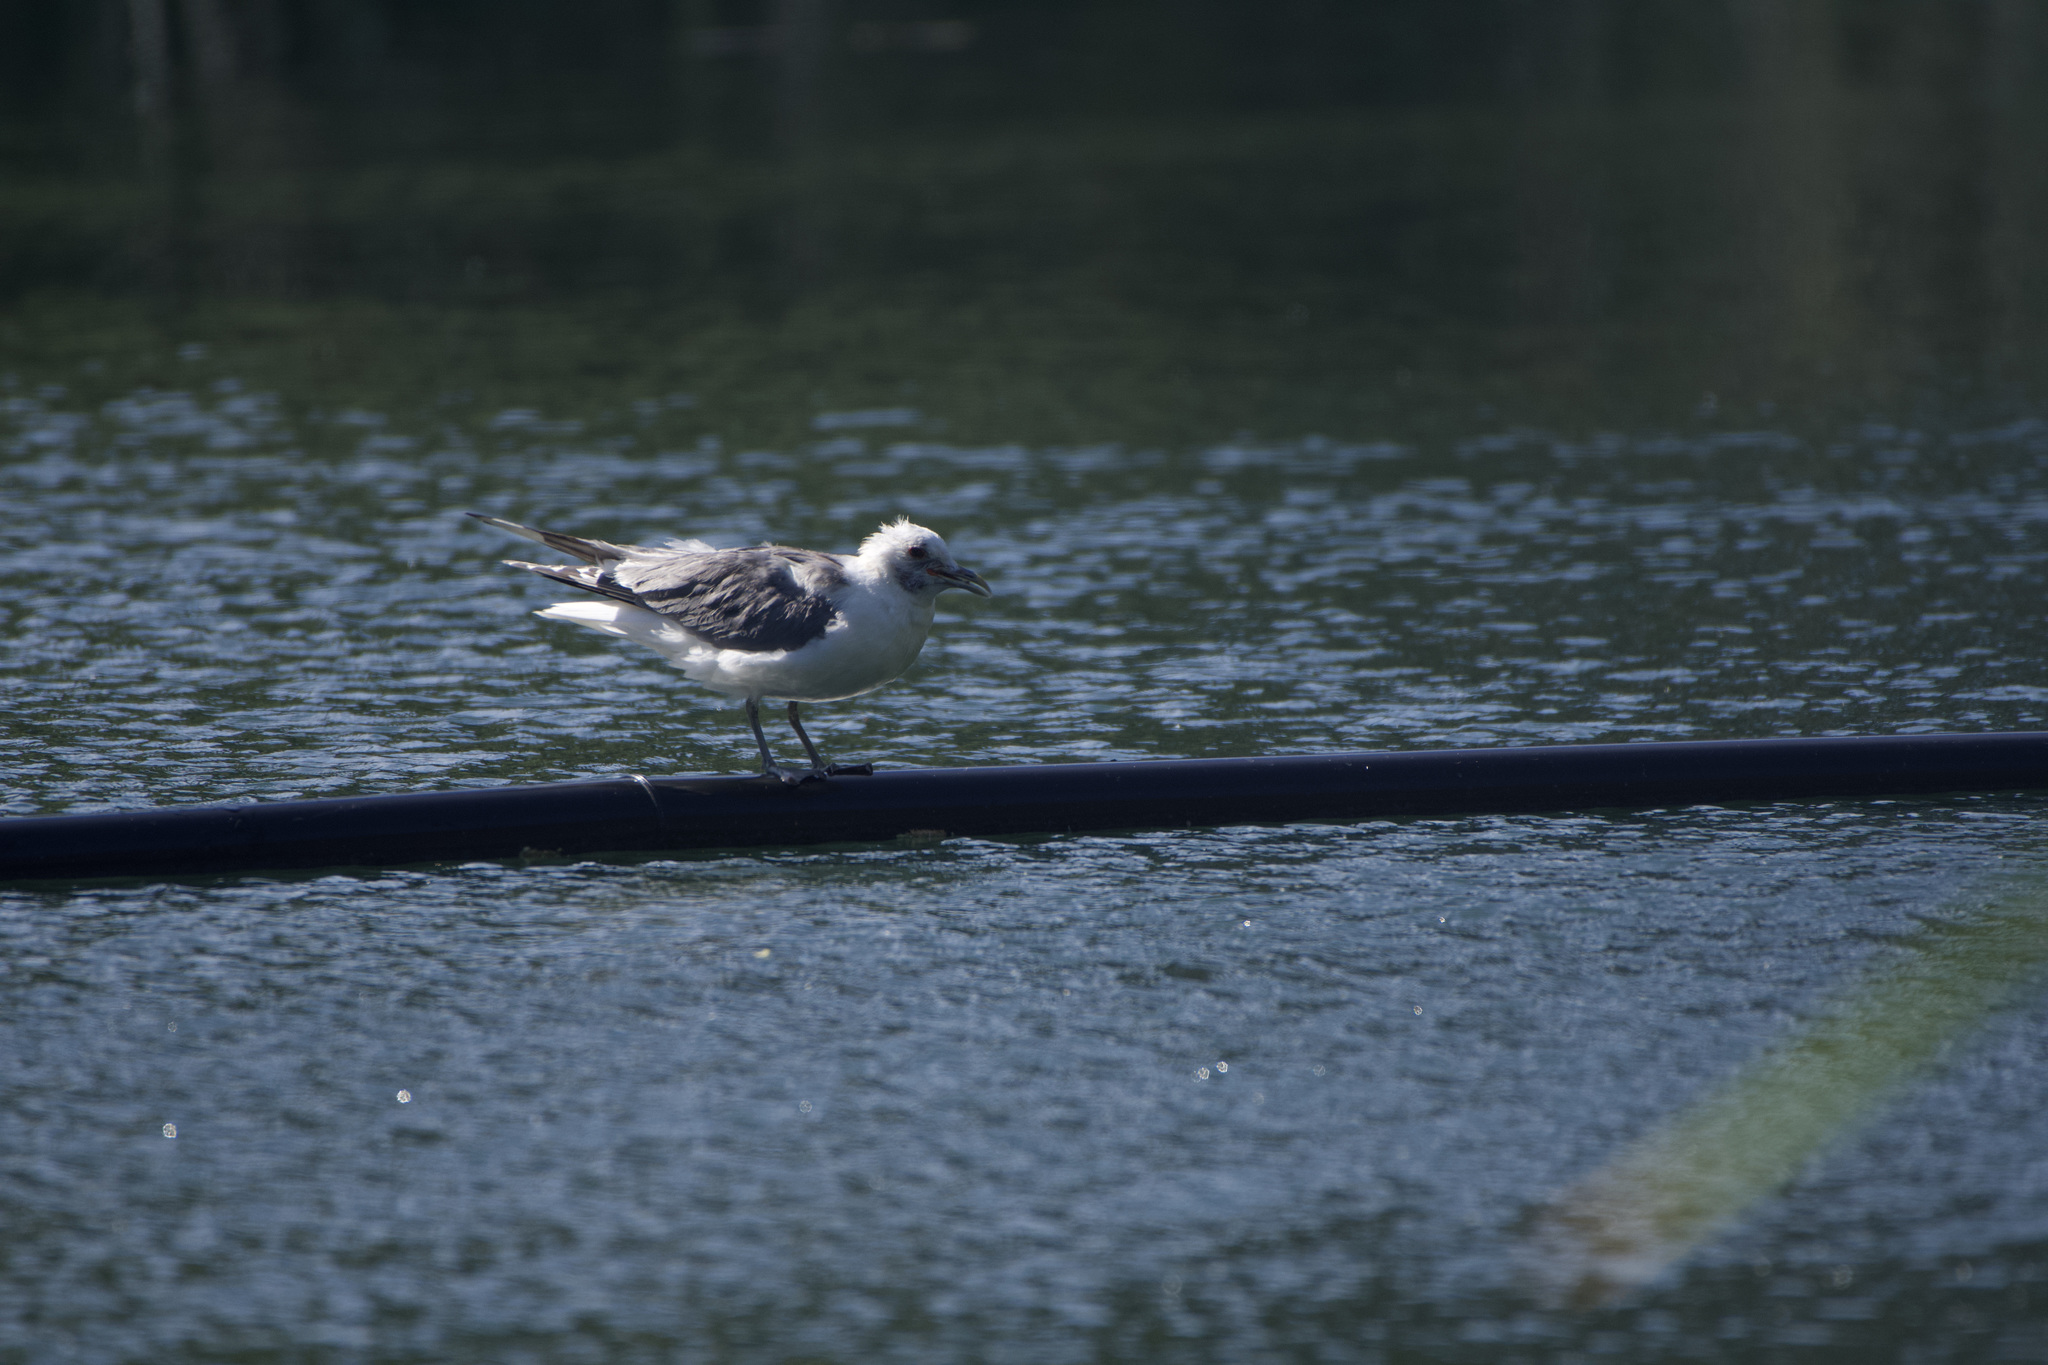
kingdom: Animalia
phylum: Chordata
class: Aves
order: Charadriiformes
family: Laridae
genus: Larus
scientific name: Larus brachyrhynchus
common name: Short-billed gull
